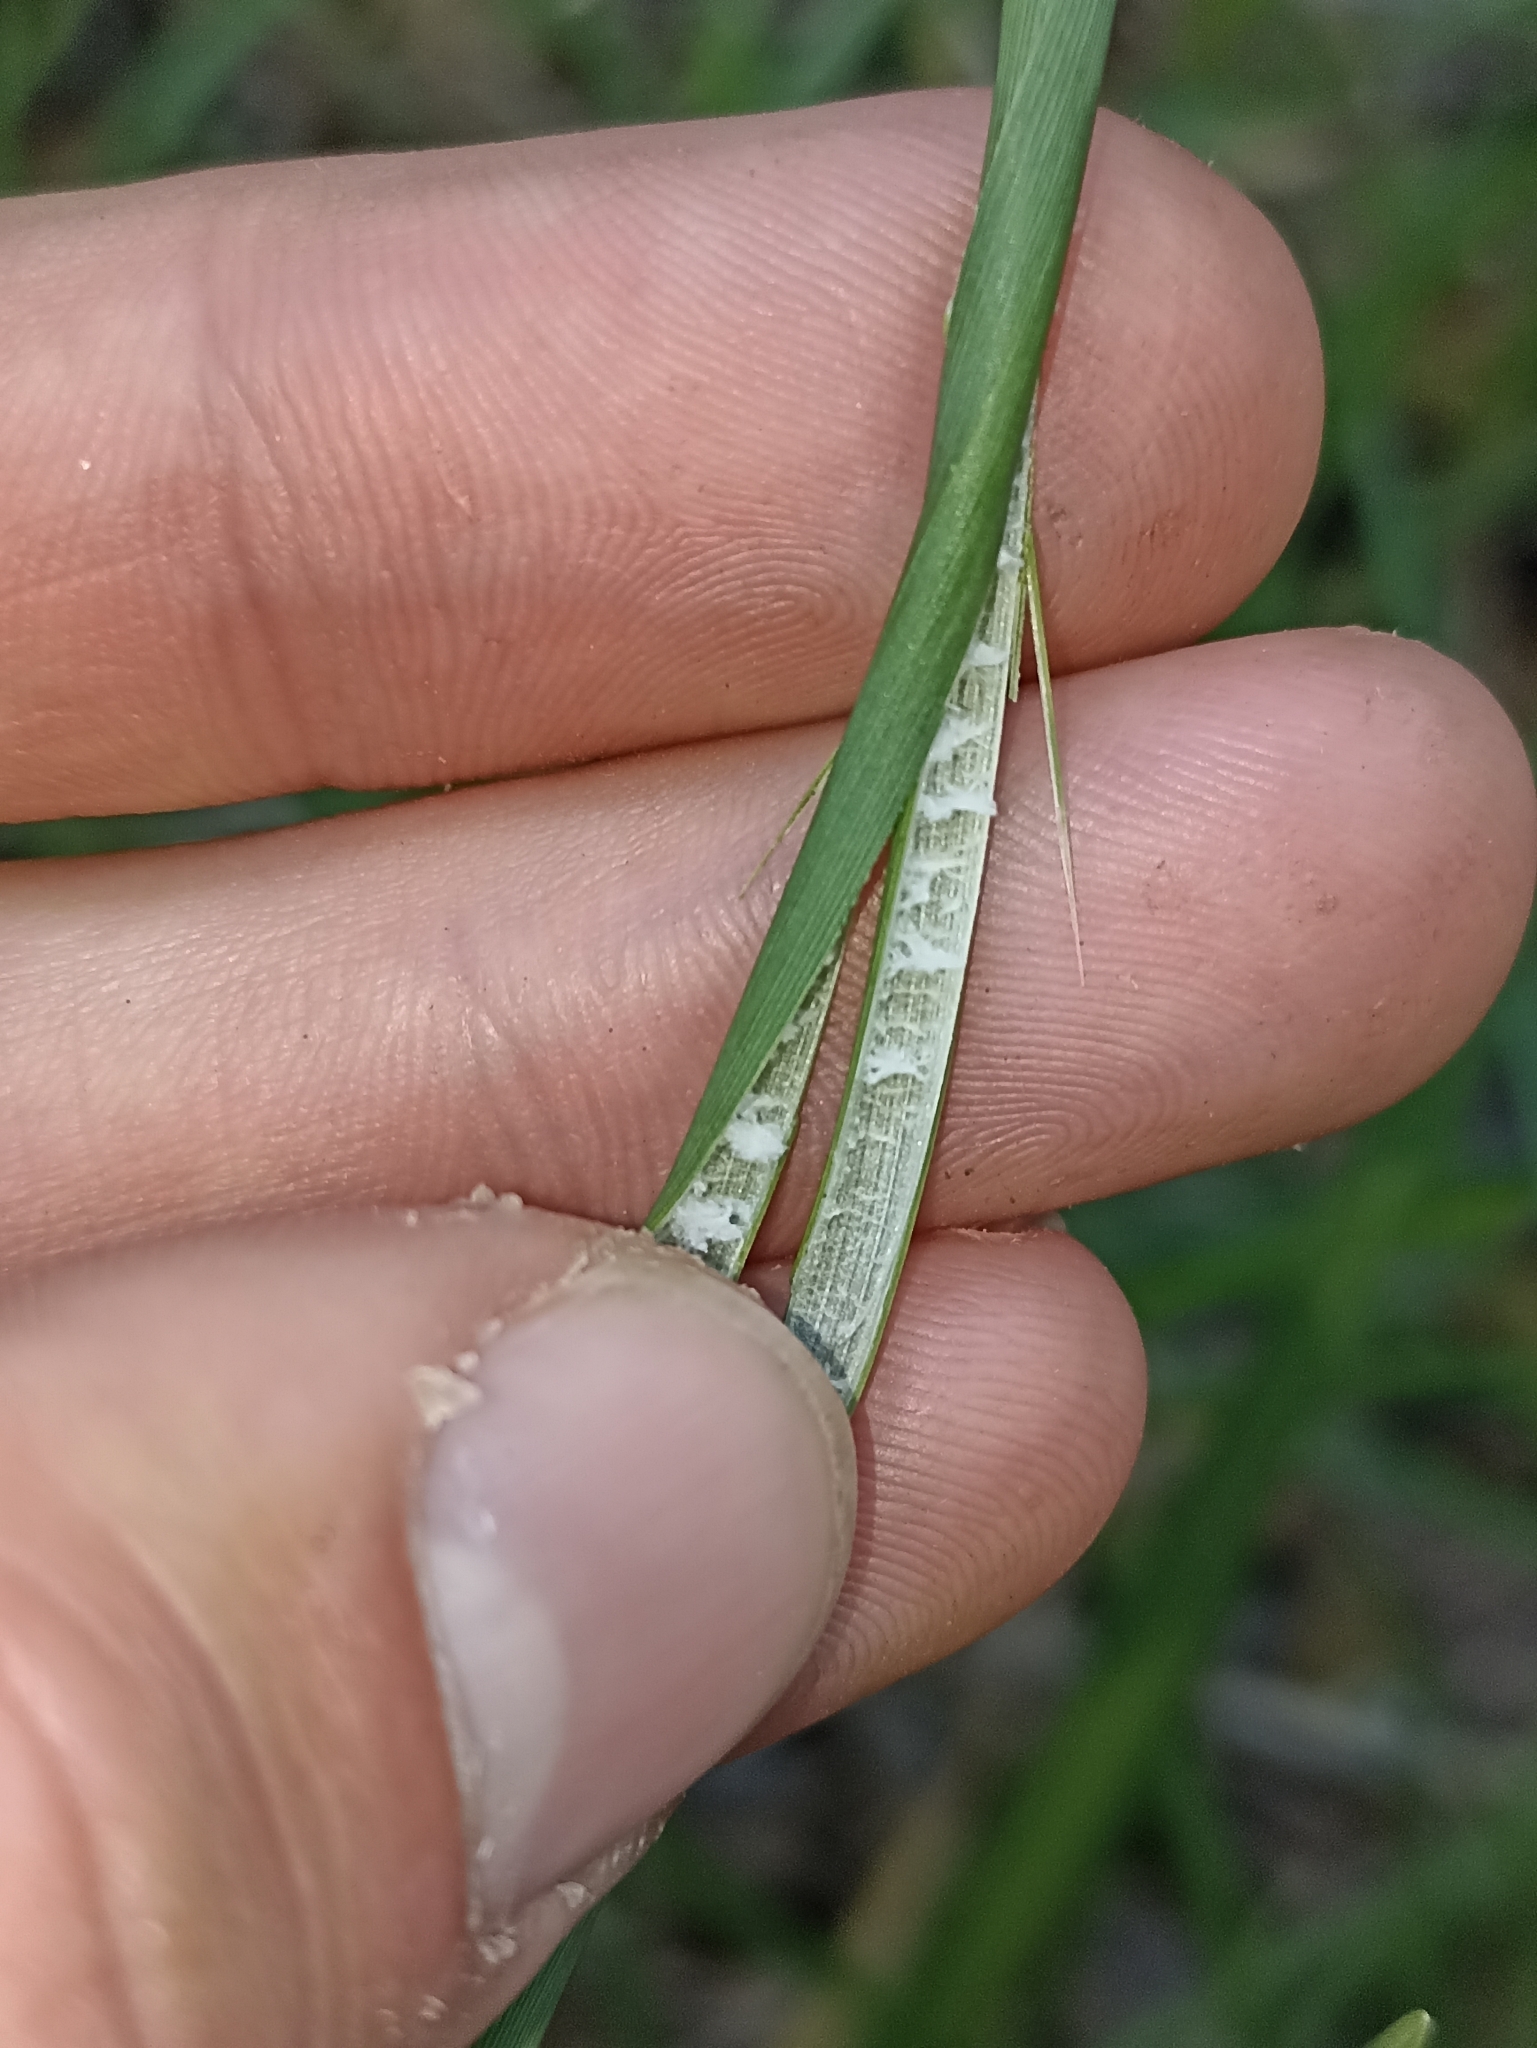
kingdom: Plantae
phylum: Tracheophyta
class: Liliopsida
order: Poales
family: Juncaceae
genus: Juncus
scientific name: Juncus australis
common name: Austral rush
